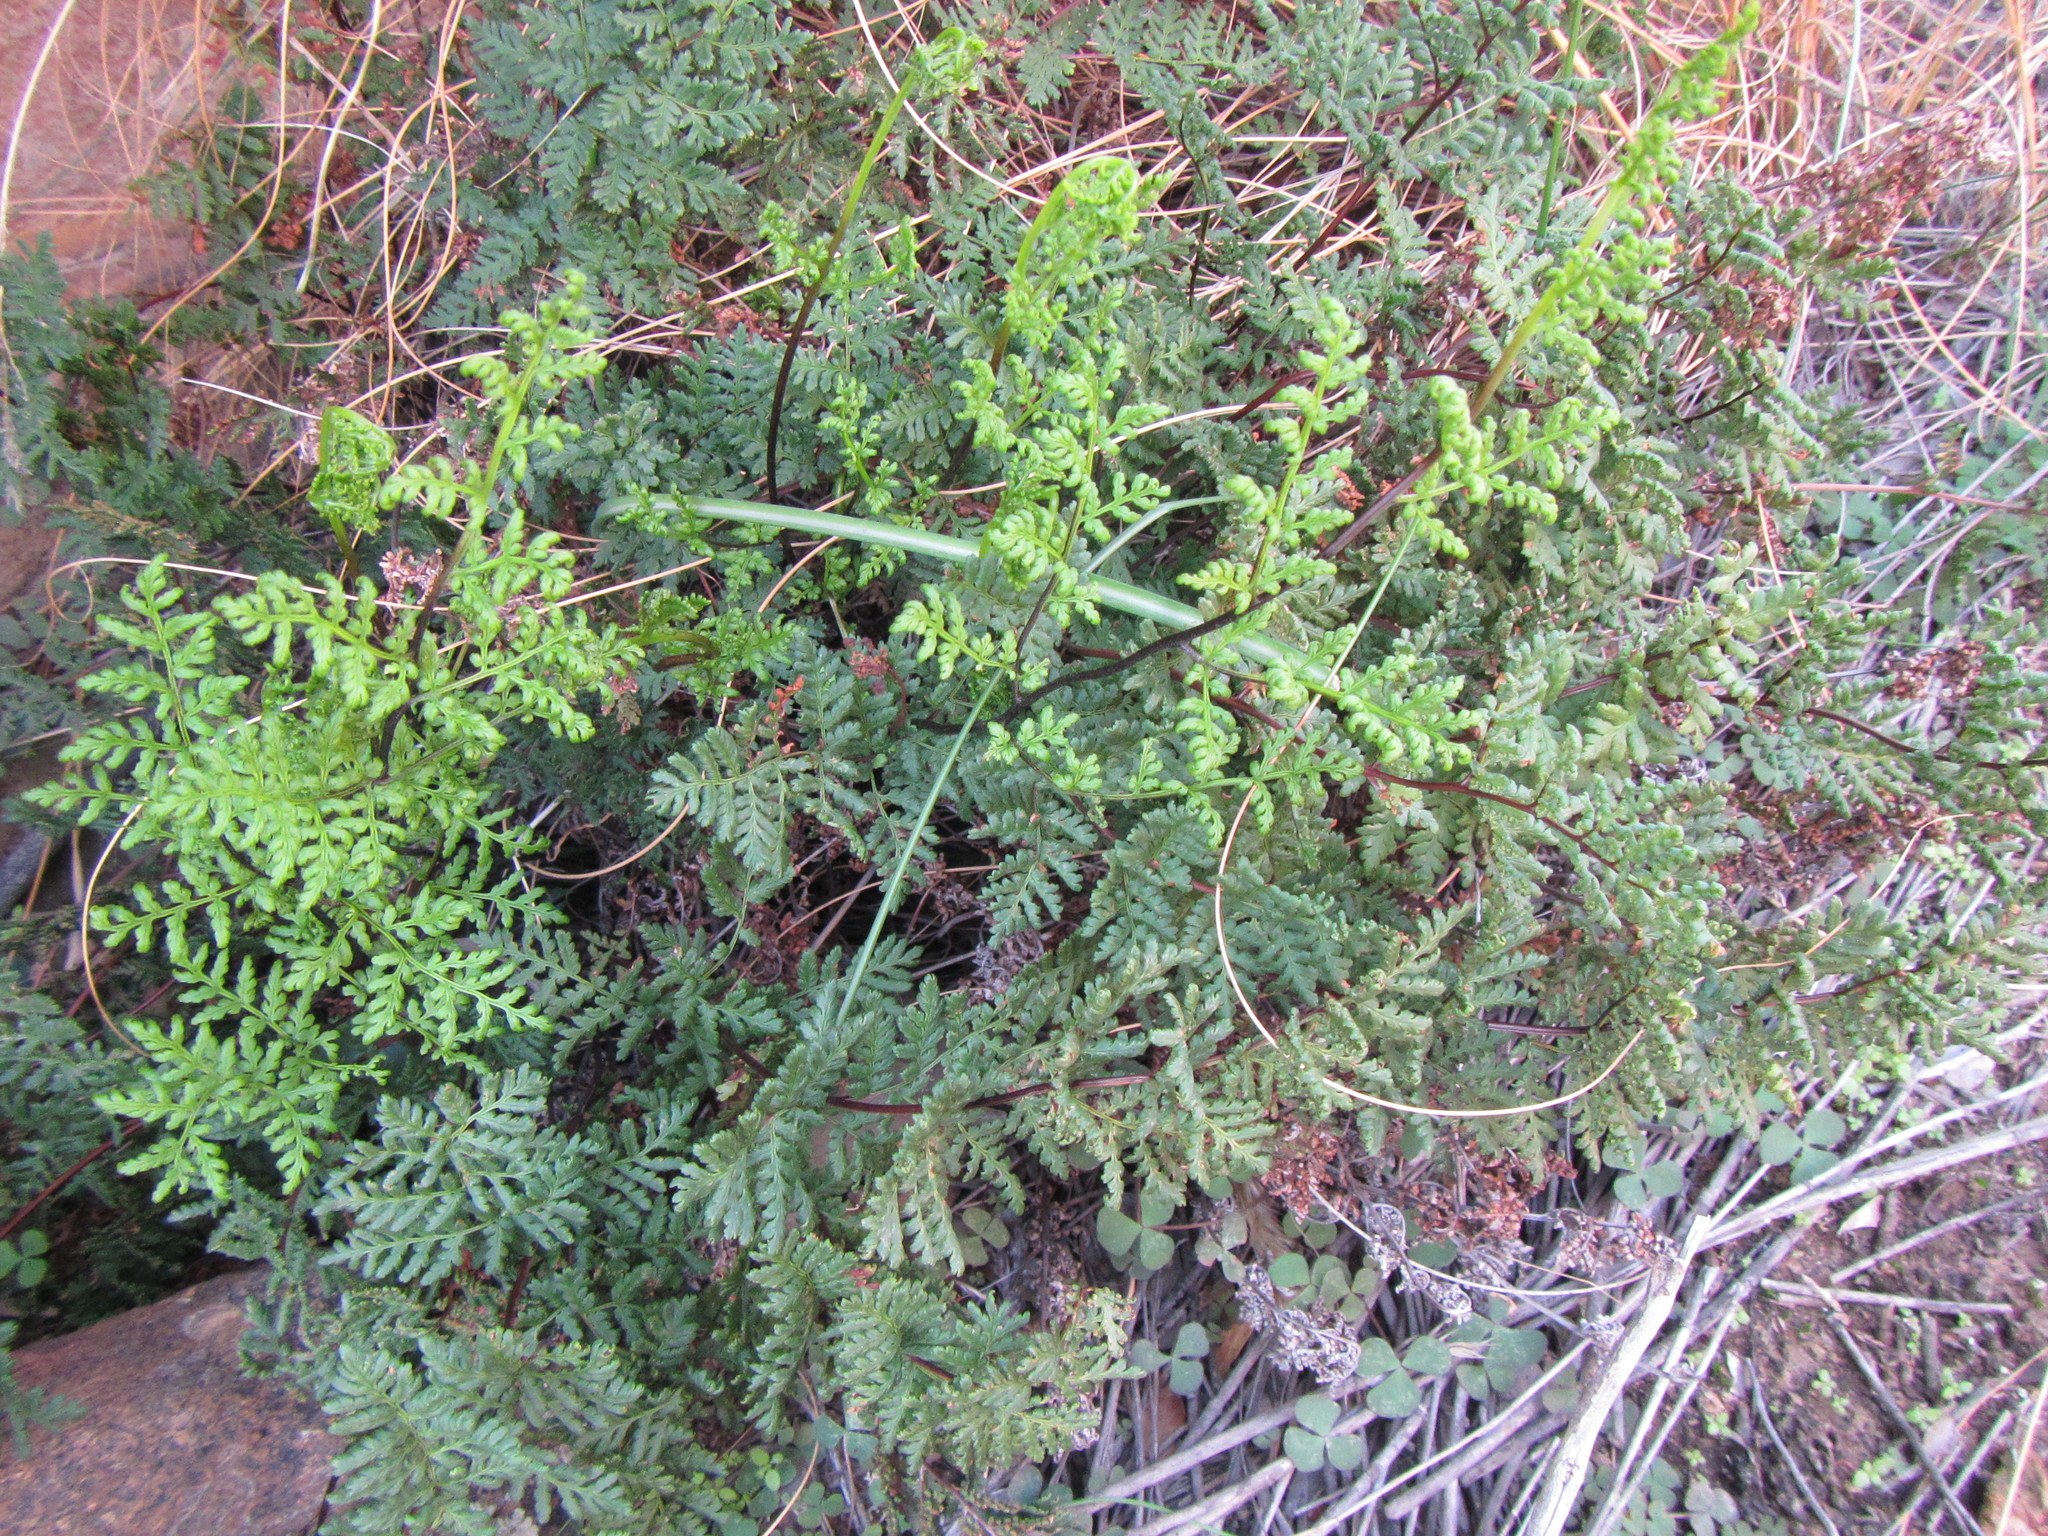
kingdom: Plantae
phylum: Tracheophyta
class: Polypodiopsida
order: Polypodiales
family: Pteridaceae
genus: Cheilanthes
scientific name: Cheilanthes multifida
